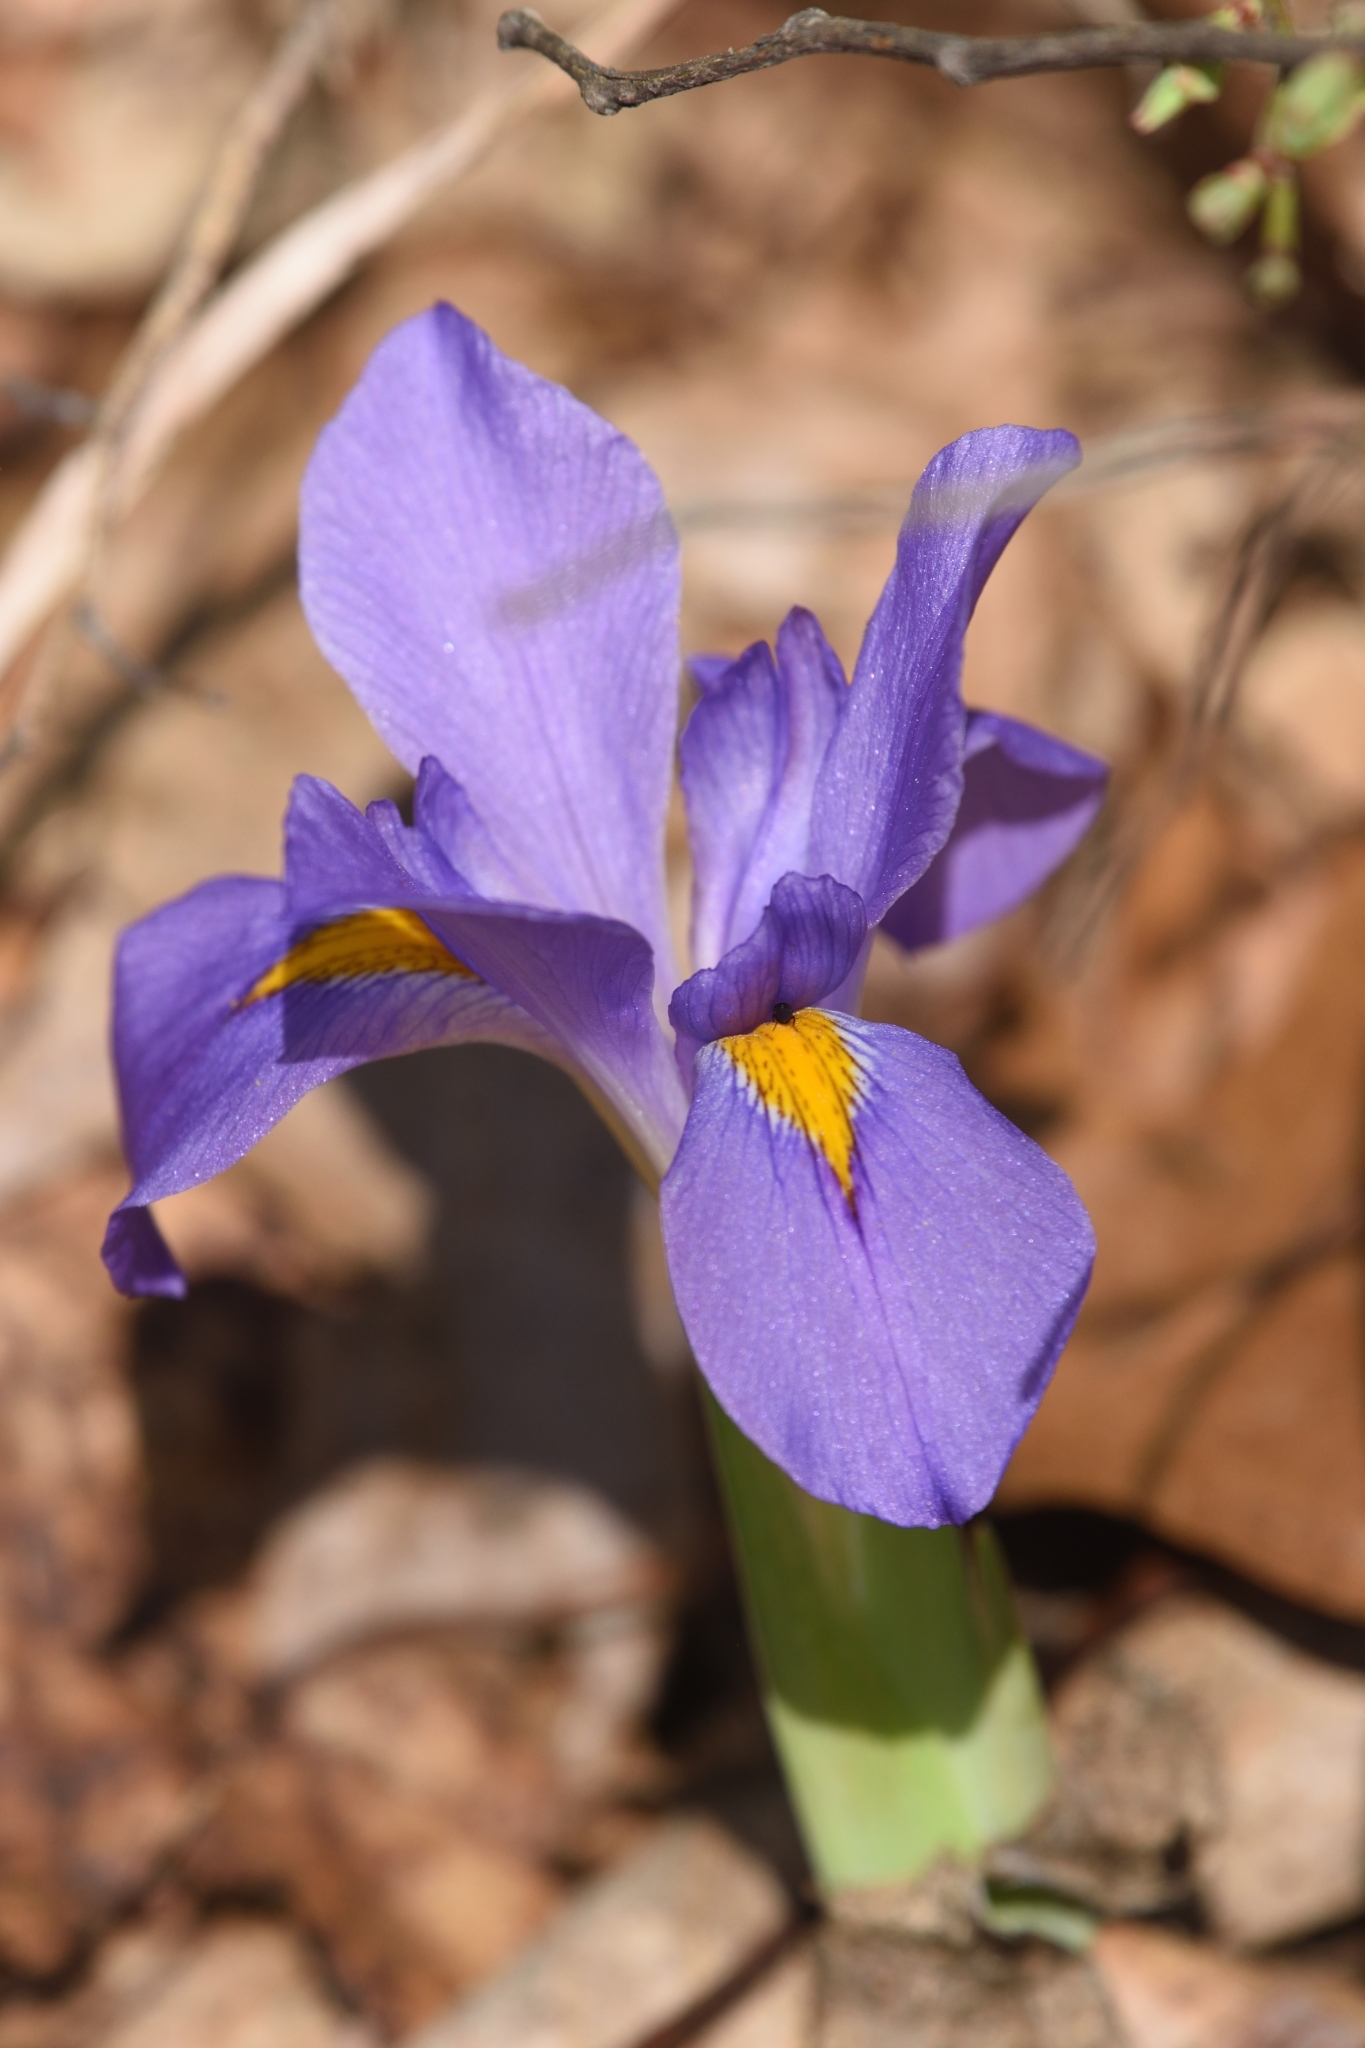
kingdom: Plantae
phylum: Tracheophyta
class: Liliopsida
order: Asparagales
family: Iridaceae
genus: Iris
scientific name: Iris verna
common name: Dwarf iris
